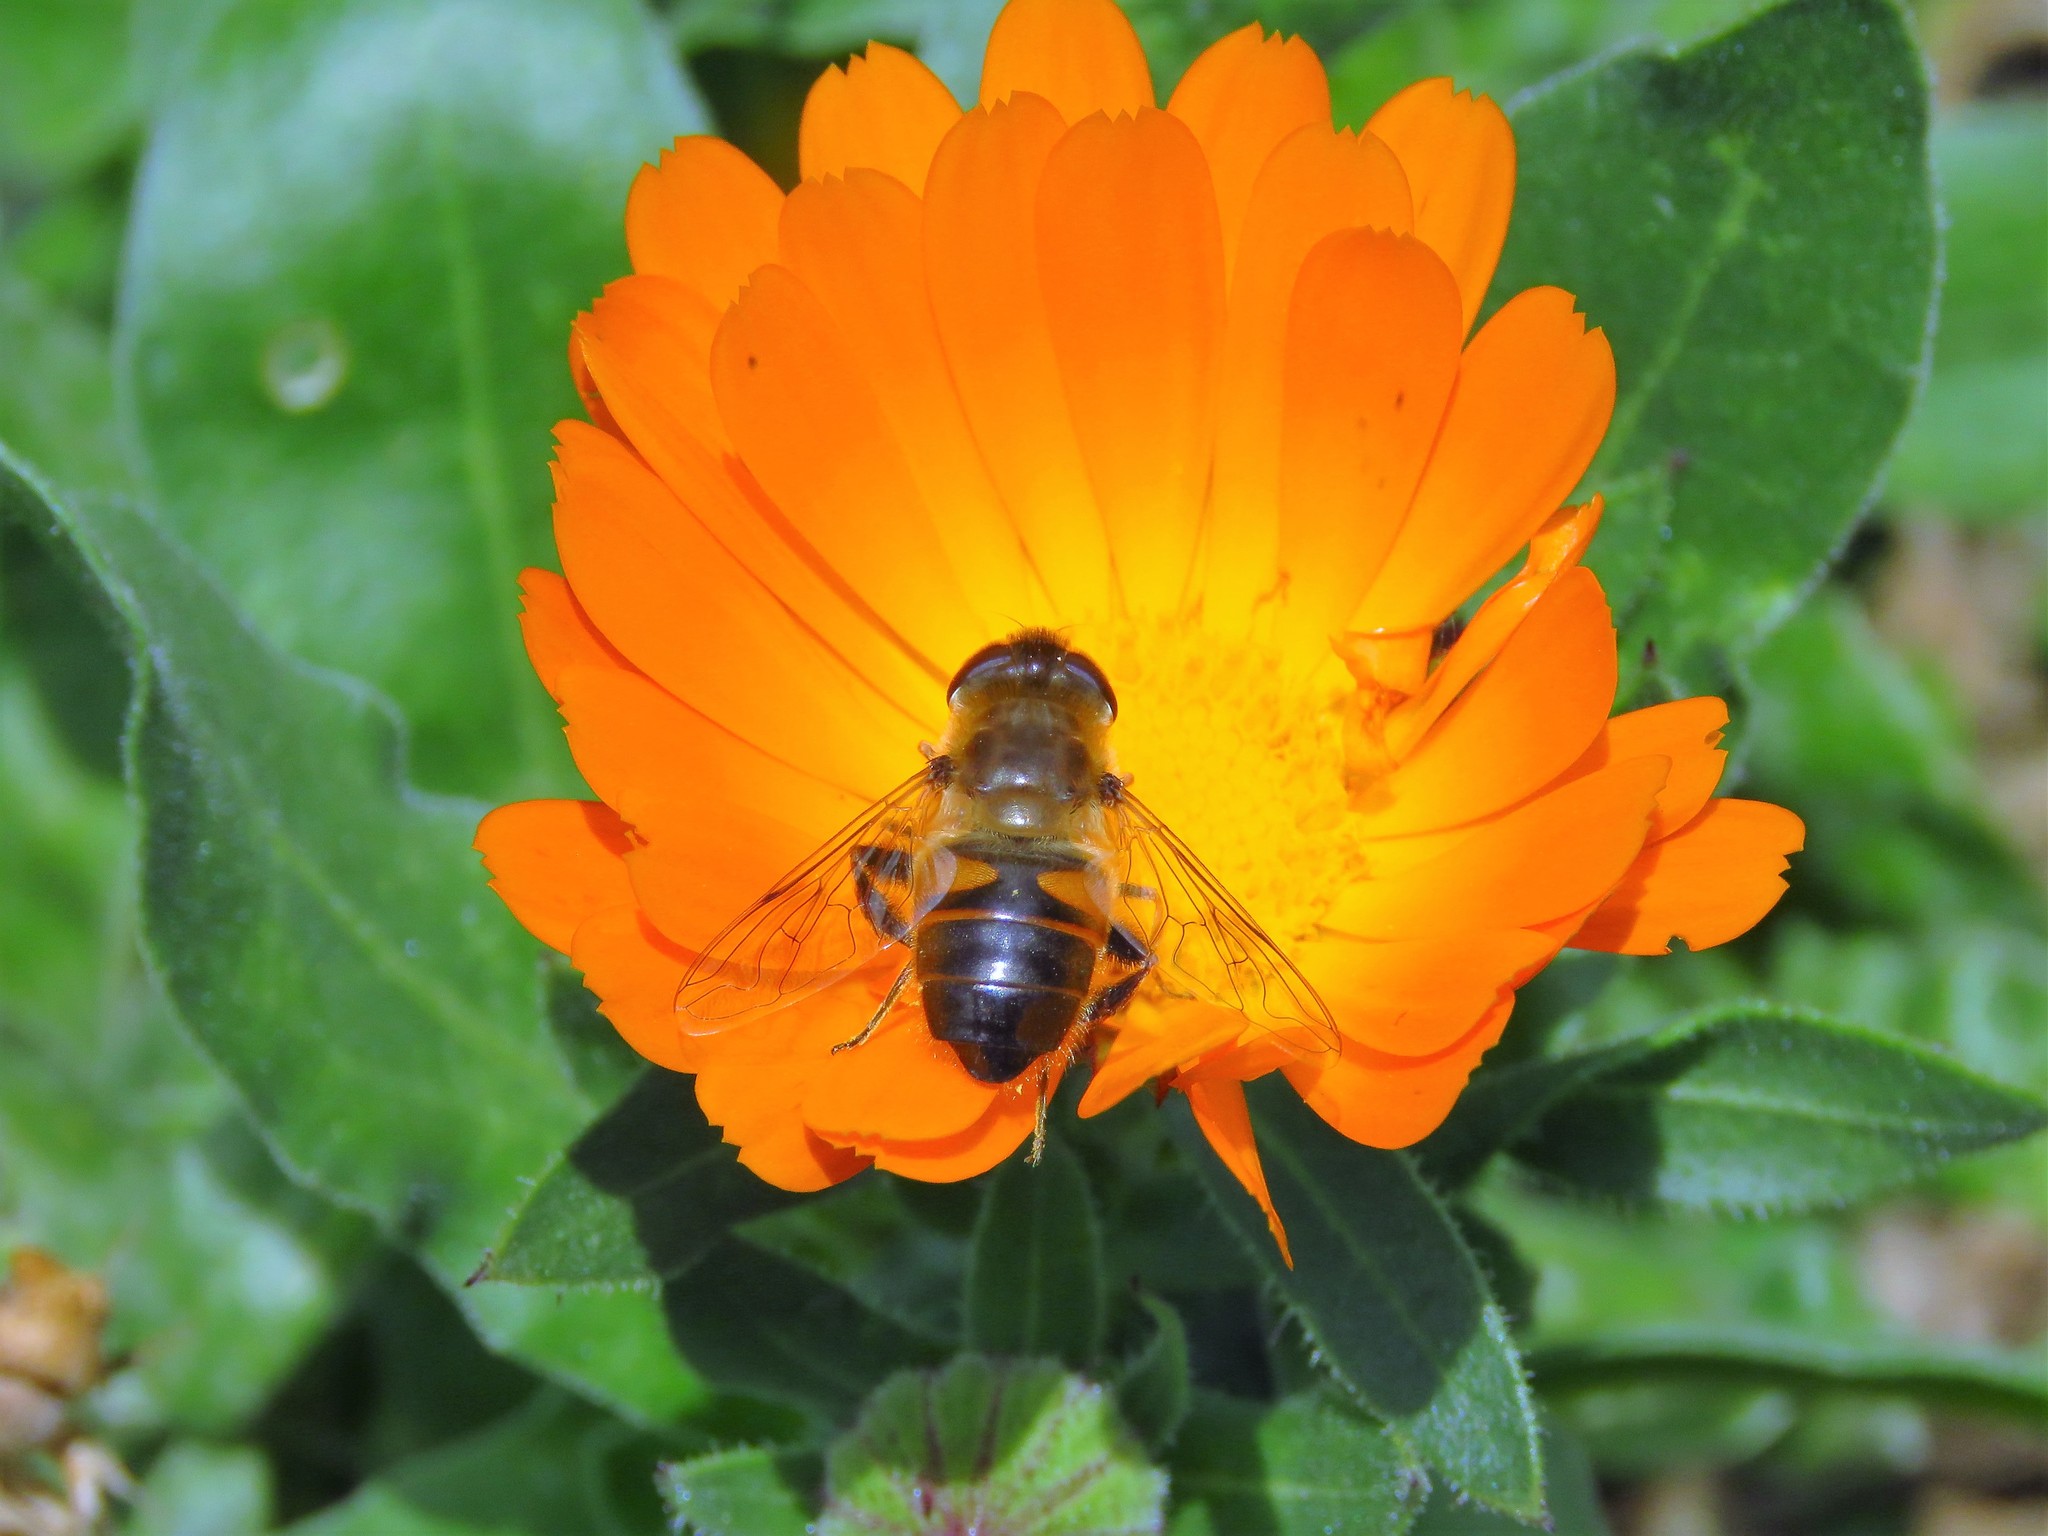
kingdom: Animalia
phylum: Arthropoda
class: Insecta
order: Diptera
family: Syrphidae
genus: Eristalis
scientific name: Eristalis tenax
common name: Drone fly
